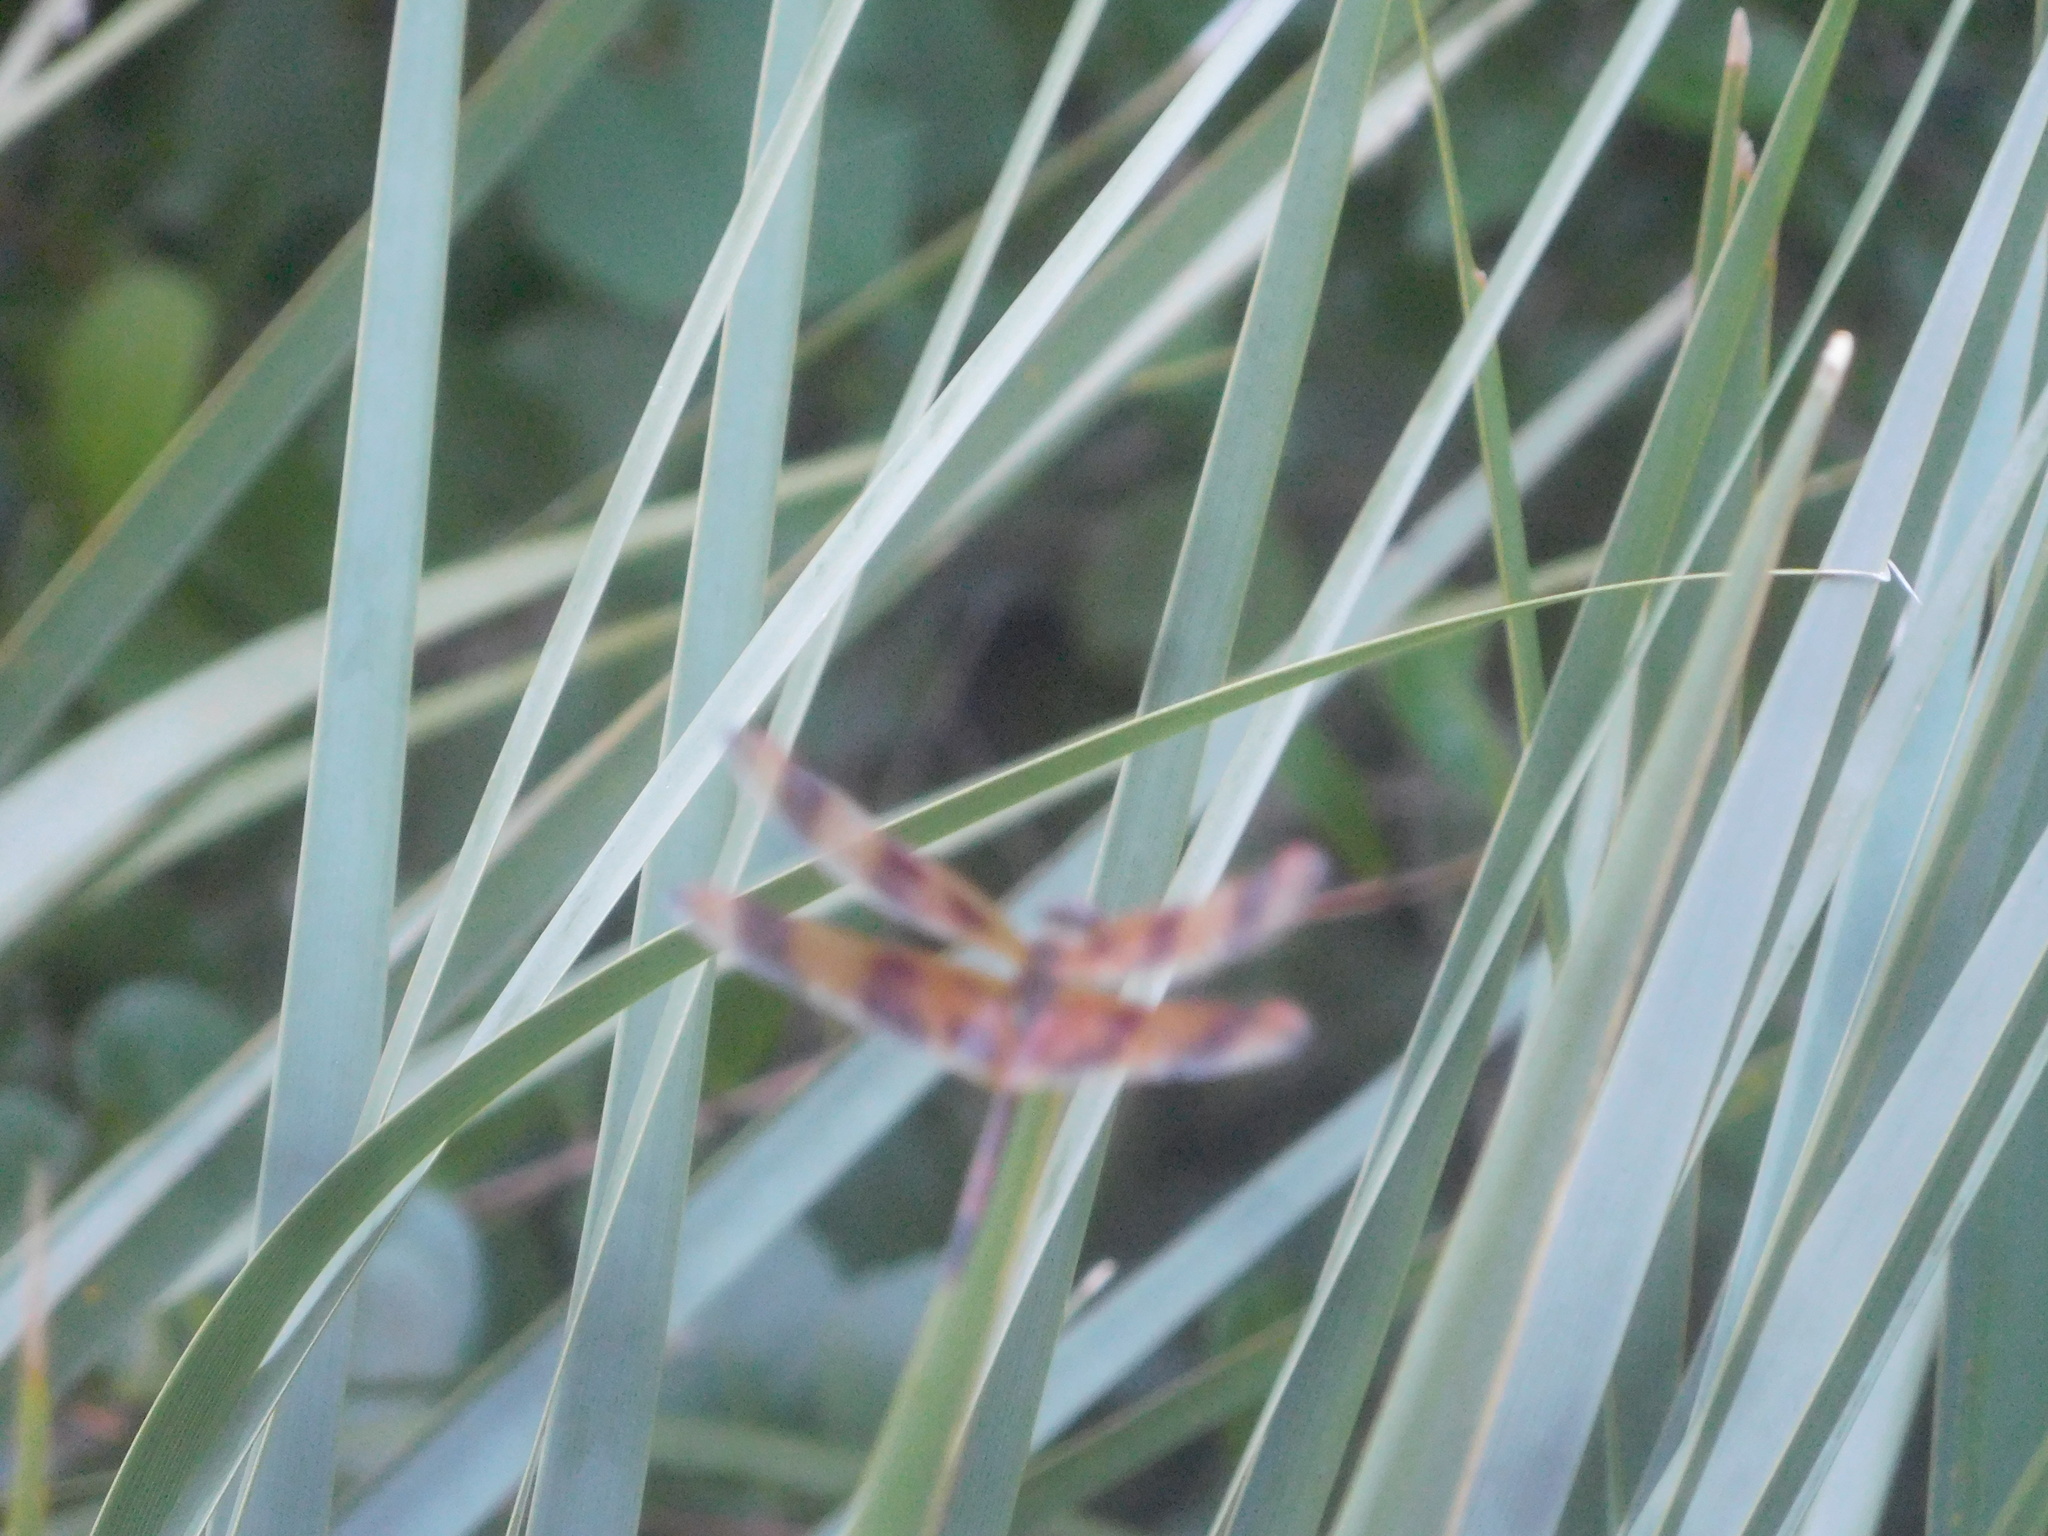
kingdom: Animalia
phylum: Arthropoda
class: Insecta
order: Odonata
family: Libellulidae
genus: Celithemis
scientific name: Celithemis eponina
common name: Halloween pennant
